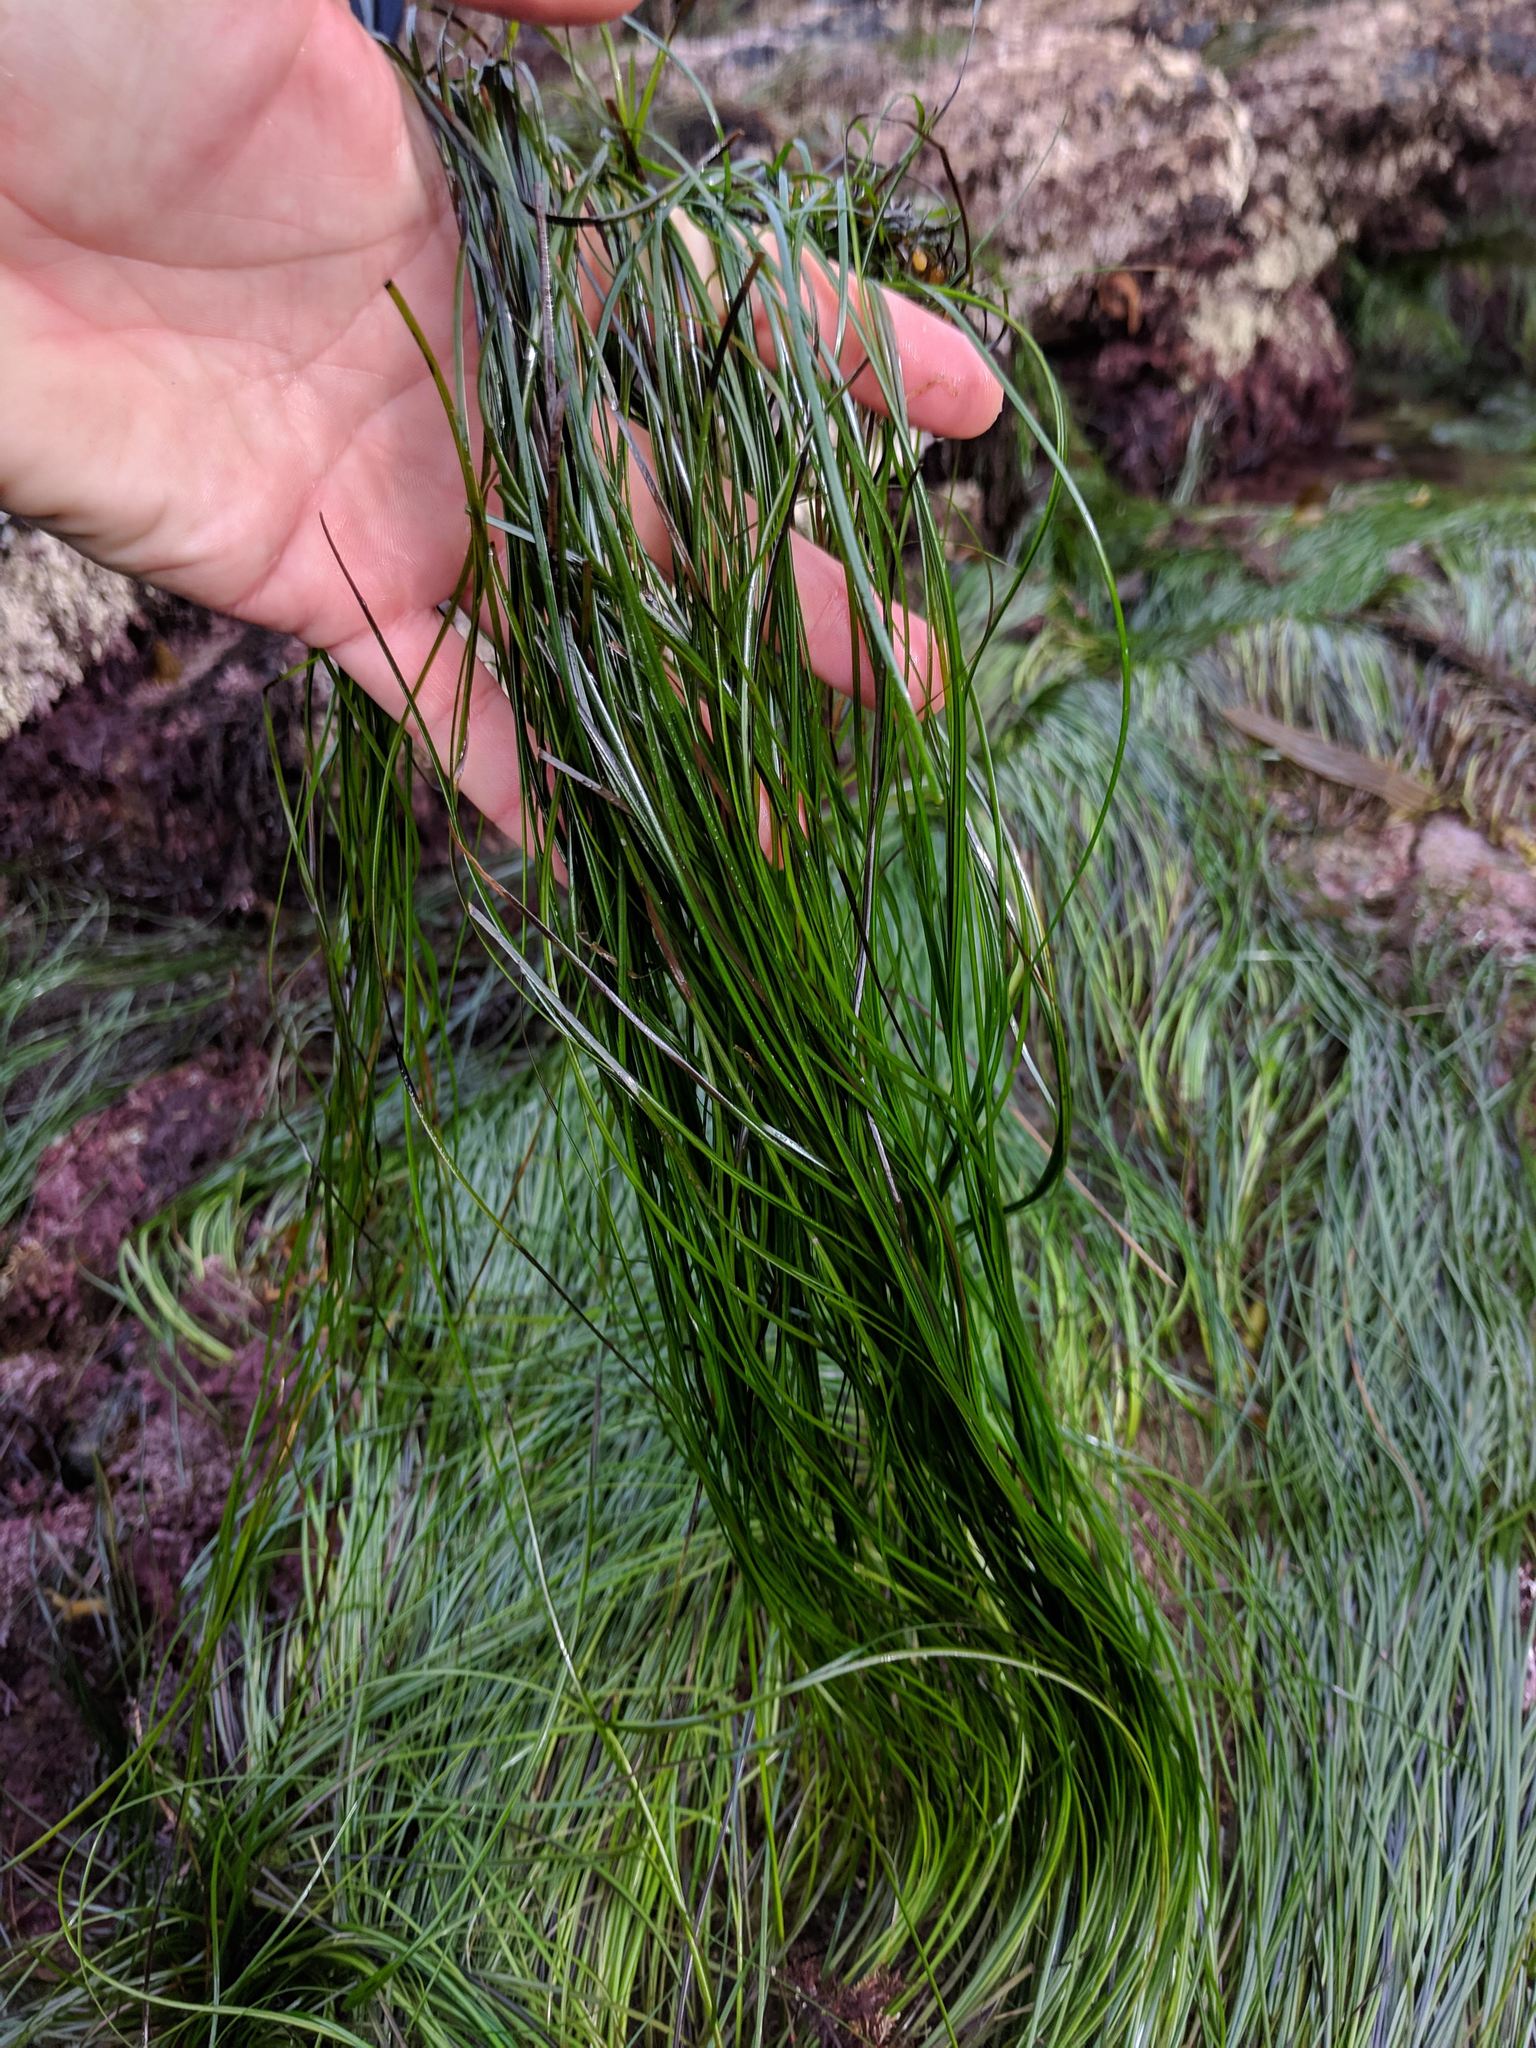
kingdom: Plantae
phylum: Tracheophyta
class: Liliopsida
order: Alismatales
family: Zosteraceae
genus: Phyllospadix
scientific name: Phyllospadix torreyi
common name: Surfgrass
